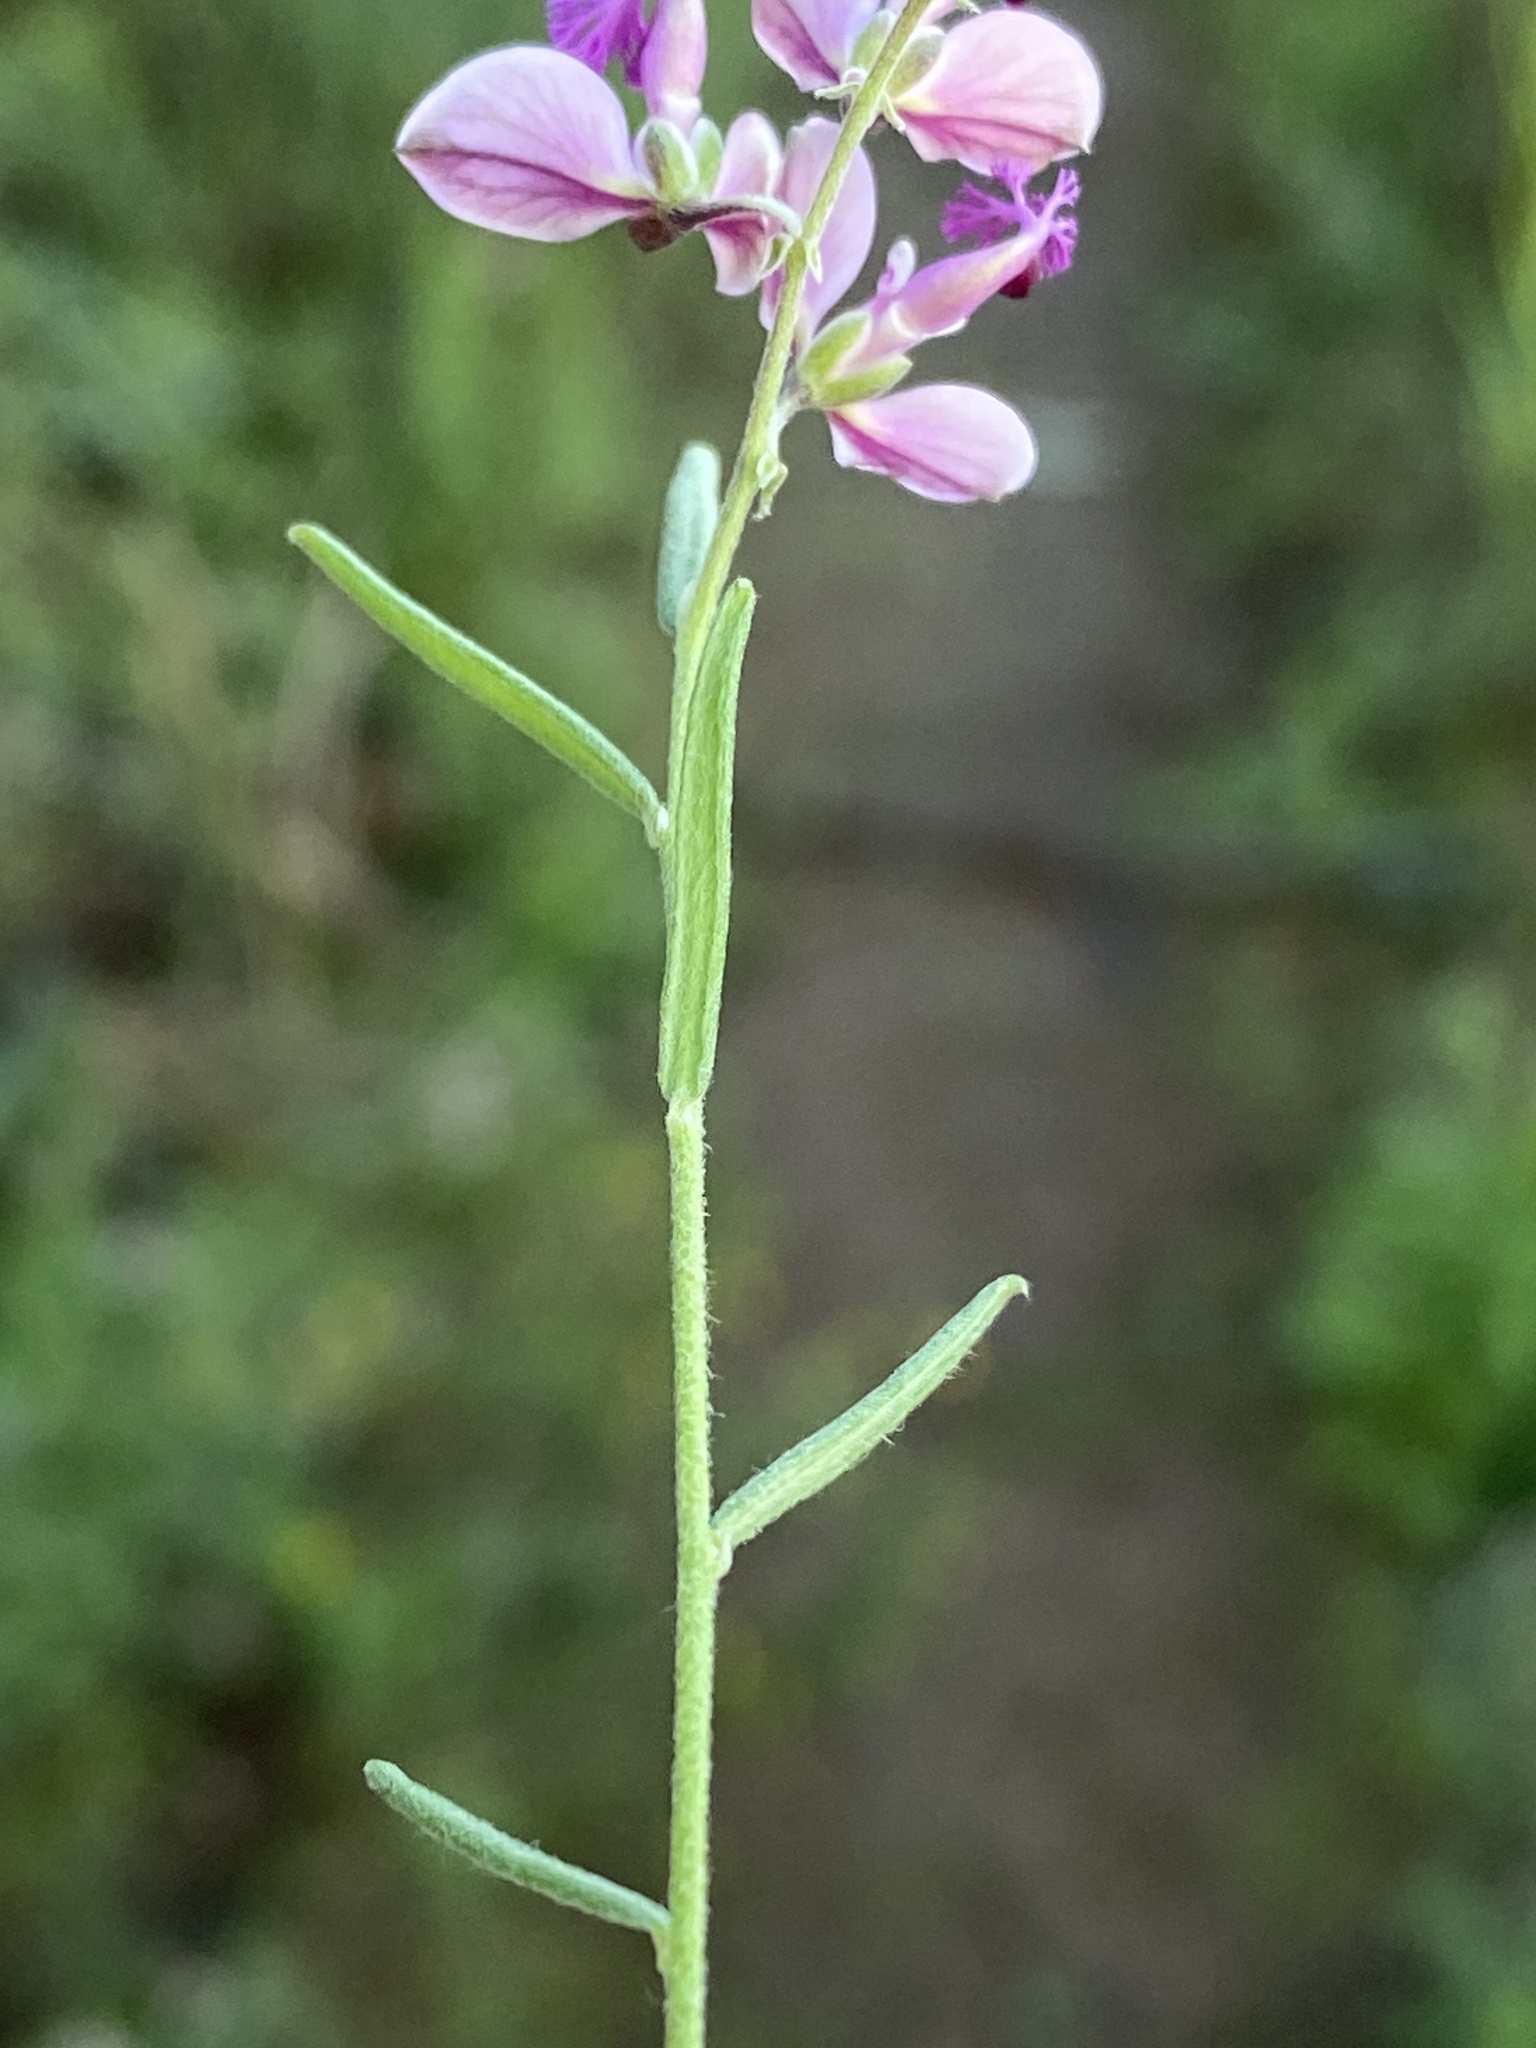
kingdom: Plantae
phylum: Tracheophyta
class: Magnoliopsida
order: Fabales
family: Polygalaceae
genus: Polygala
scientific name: Polygala scabra
